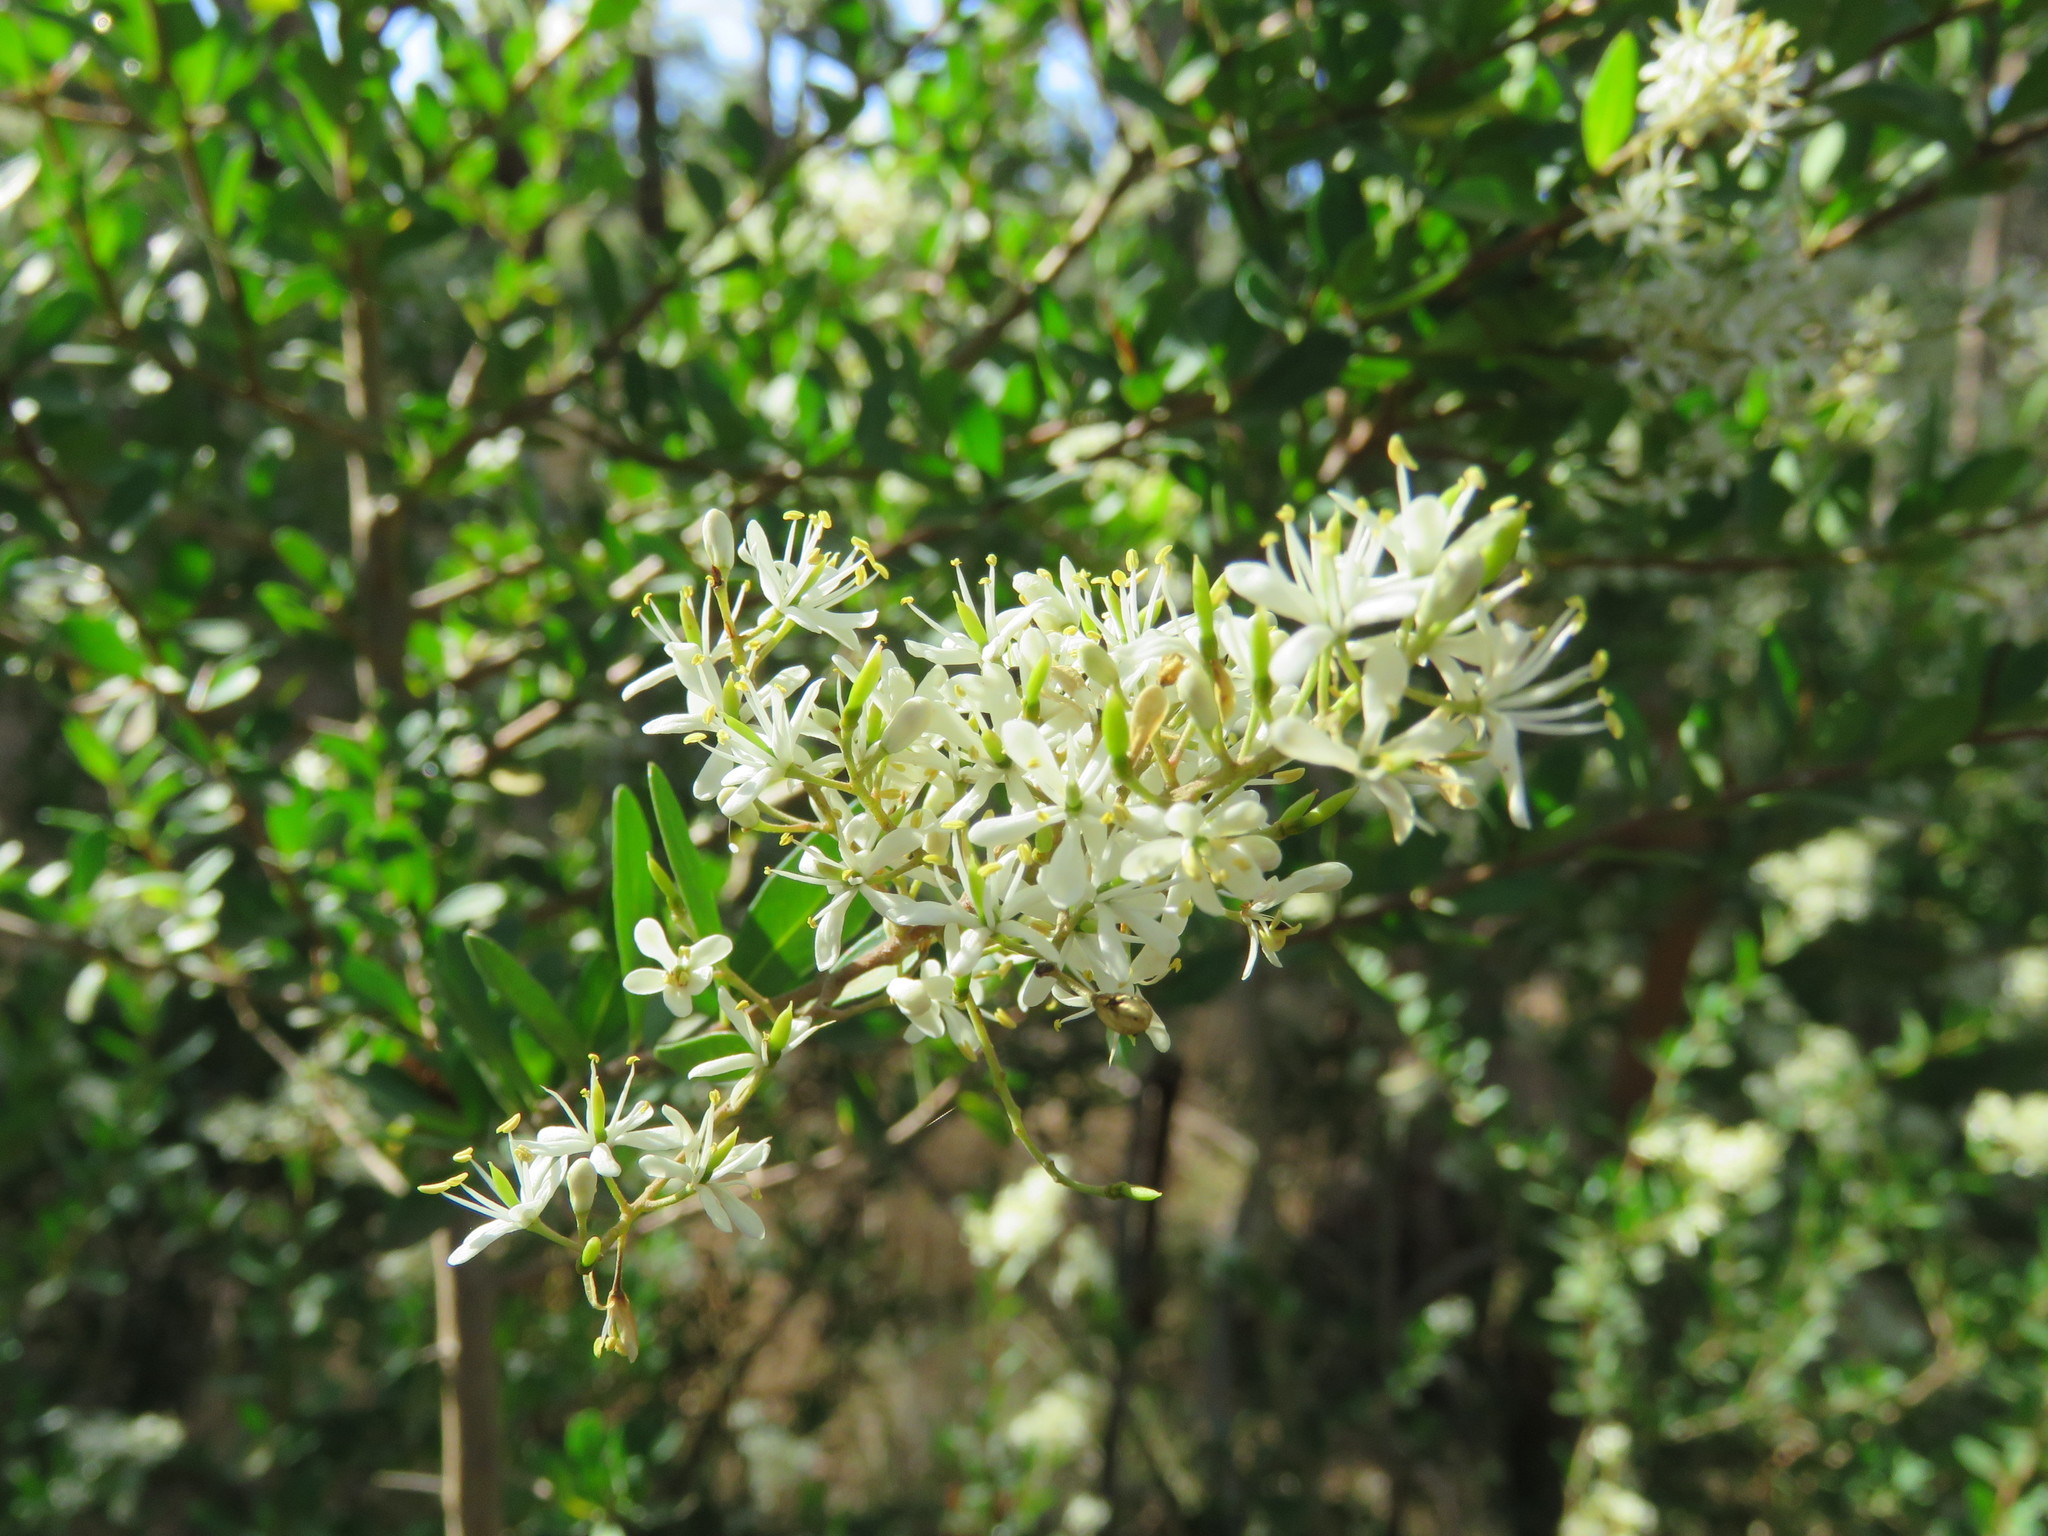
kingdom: Plantae
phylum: Tracheophyta
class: Magnoliopsida
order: Apiales
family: Pittosporaceae
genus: Bursaria
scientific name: Bursaria spinosa
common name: Australian blackthorn
